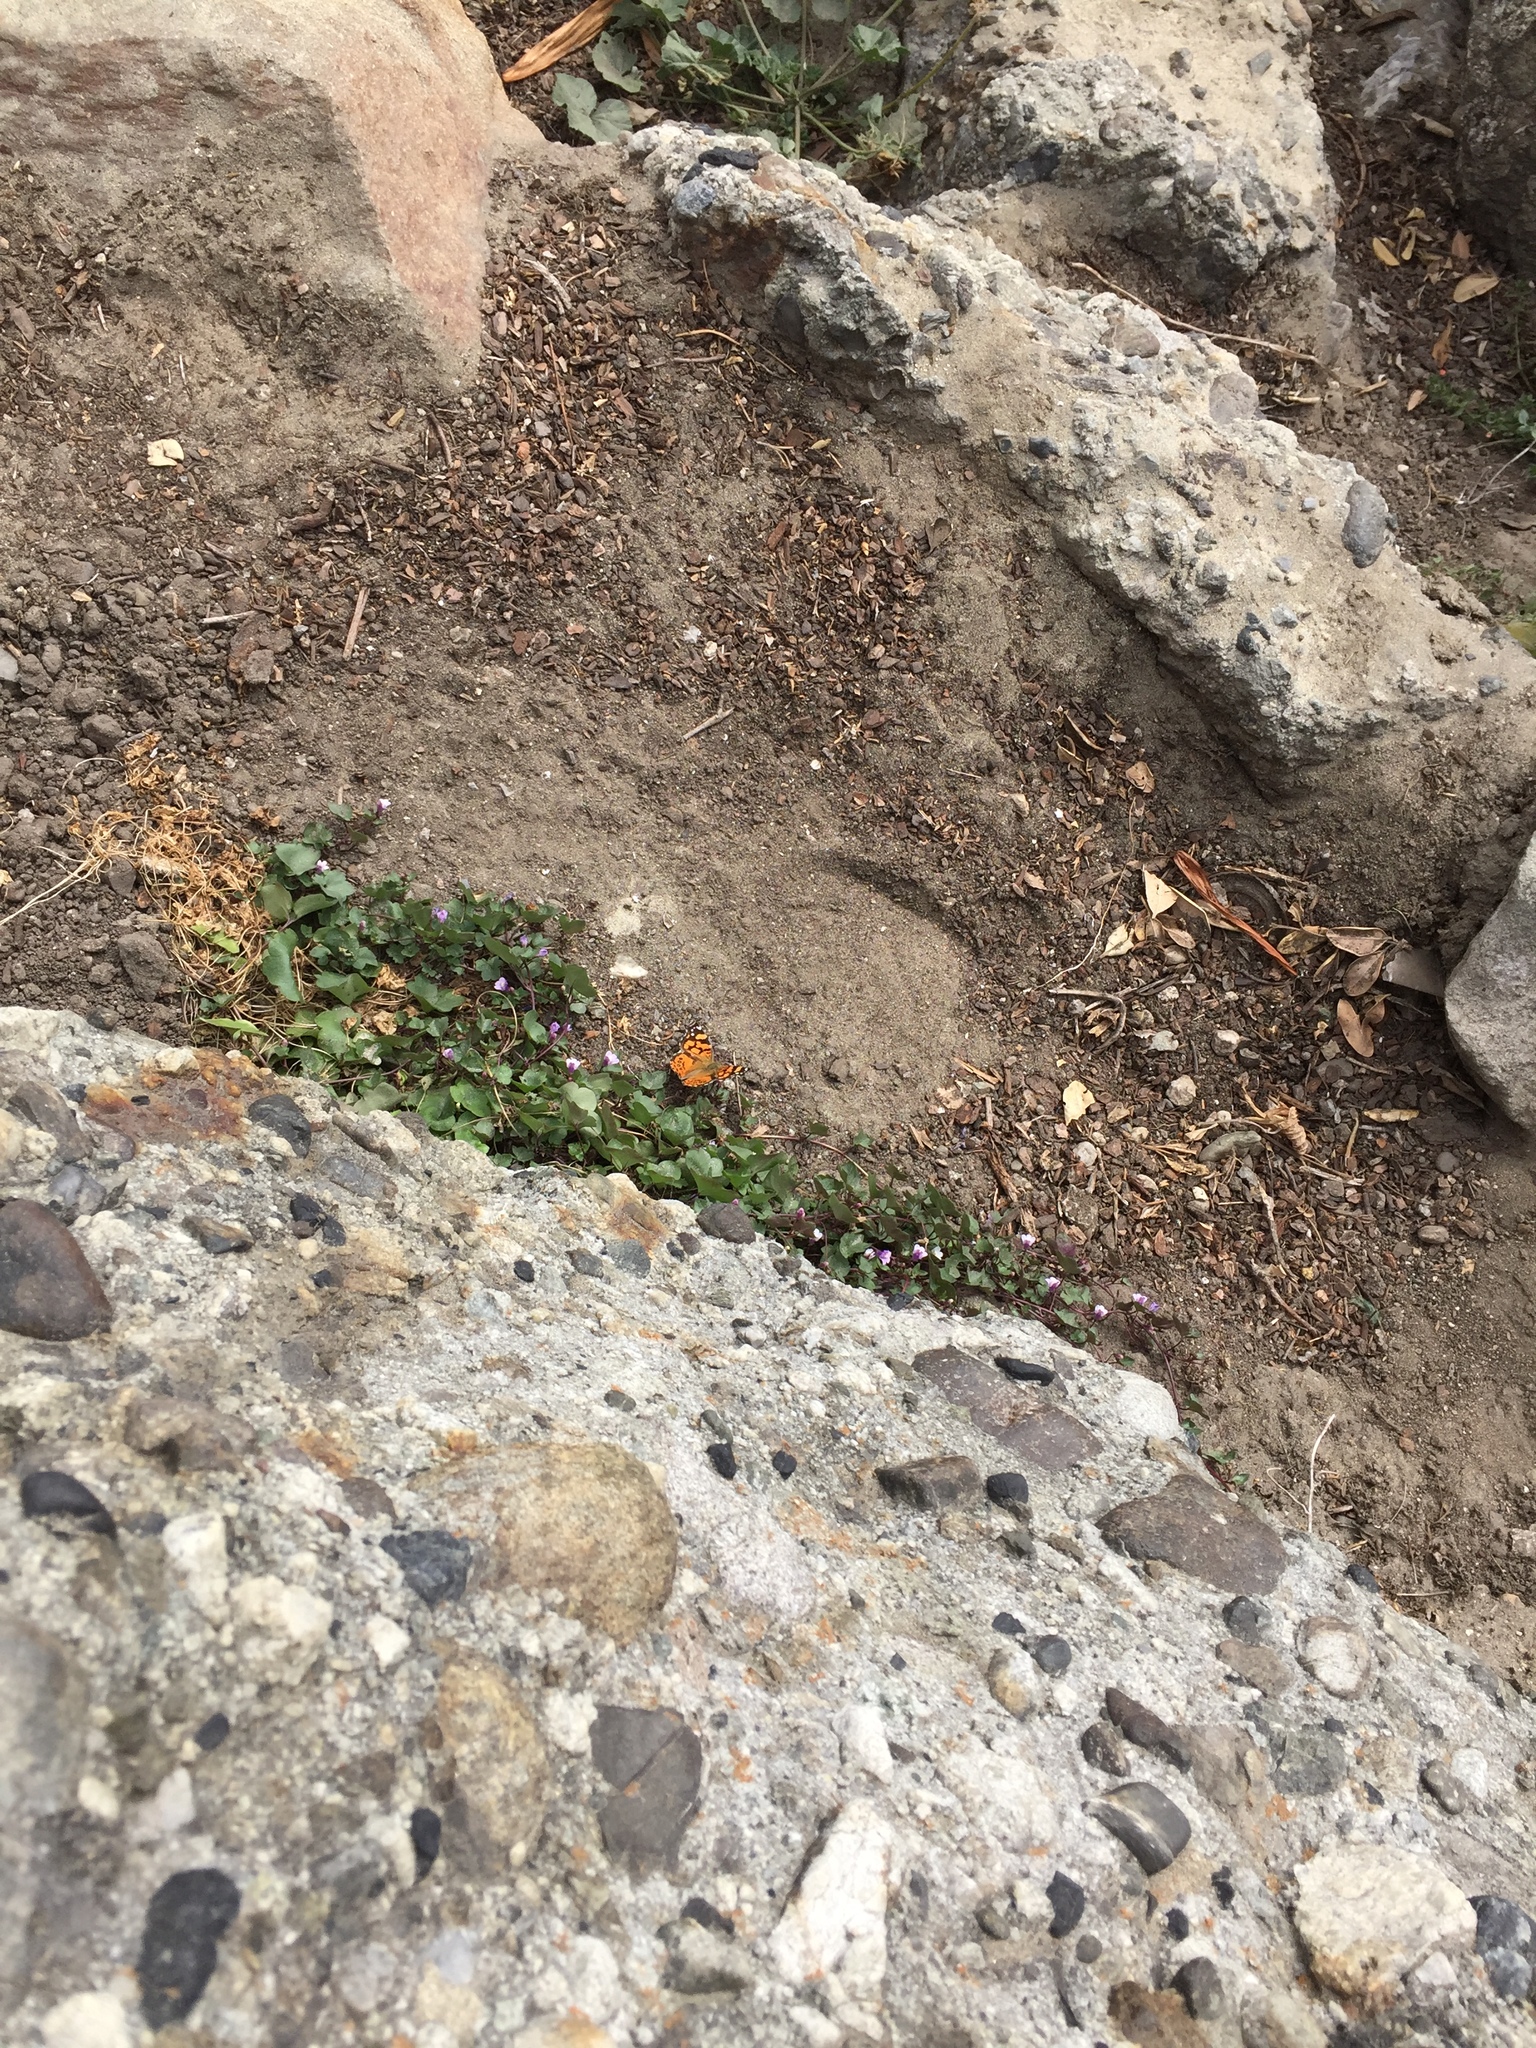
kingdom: Animalia
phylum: Arthropoda
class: Insecta
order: Lepidoptera
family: Nymphalidae
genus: Vanessa
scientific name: Vanessa annabella
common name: West coast lady
